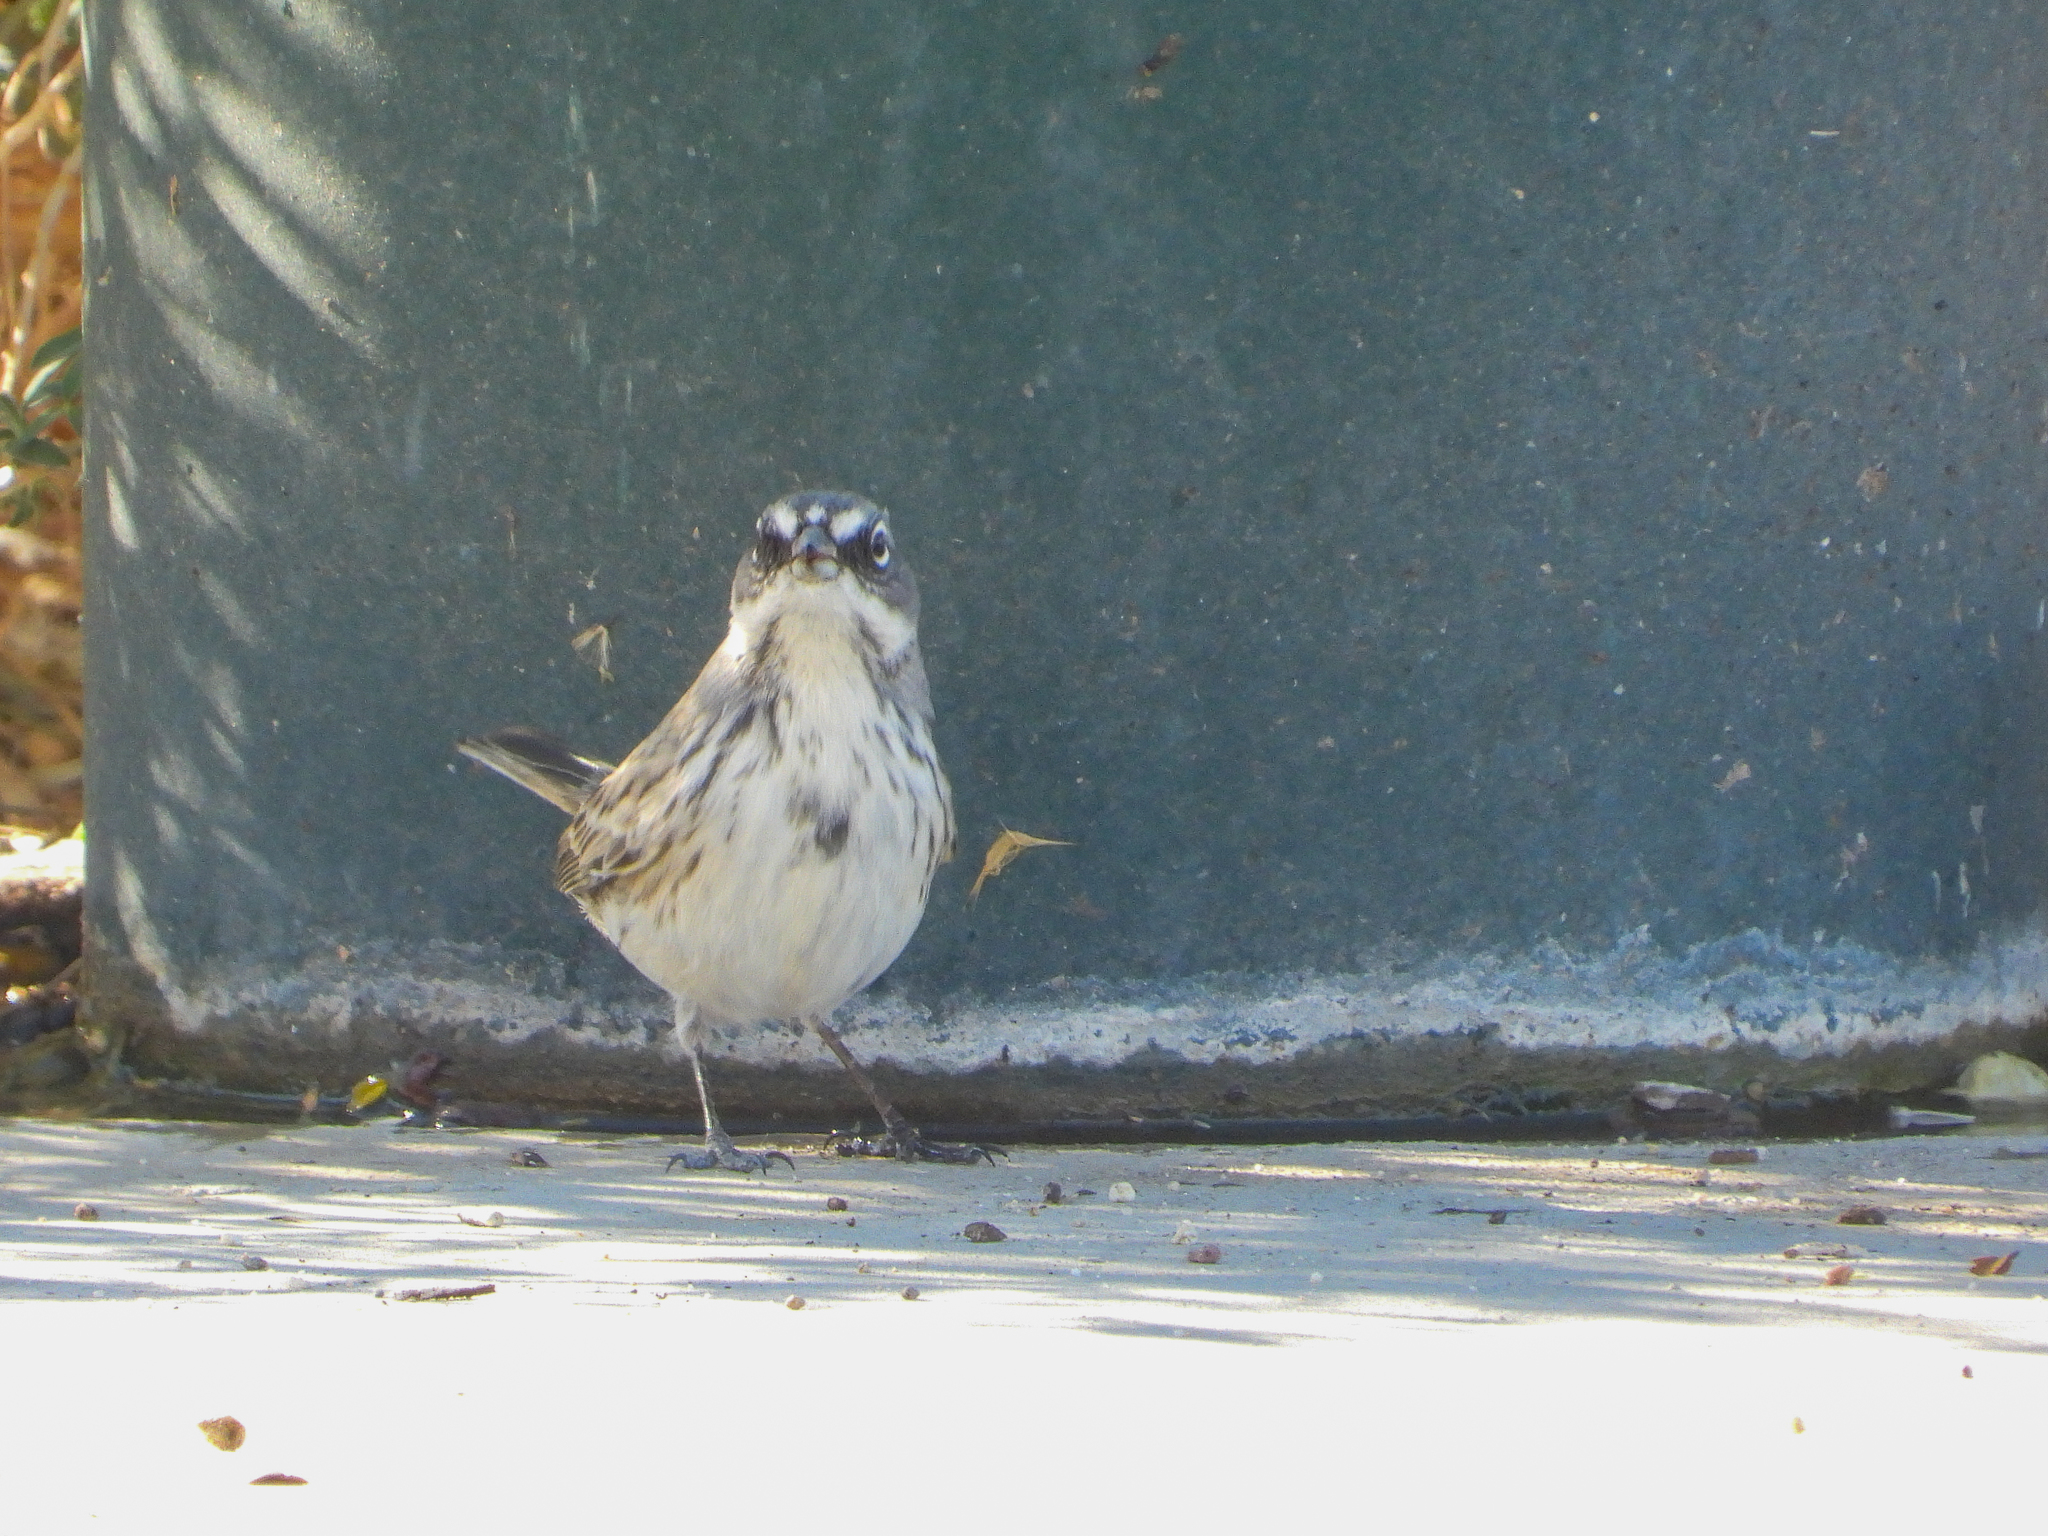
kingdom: Animalia
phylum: Chordata
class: Aves
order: Passeriformes
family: Passerellidae
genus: Artemisiospiza
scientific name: Artemisiospiza nevadensis
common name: Sagebrush sparrow
